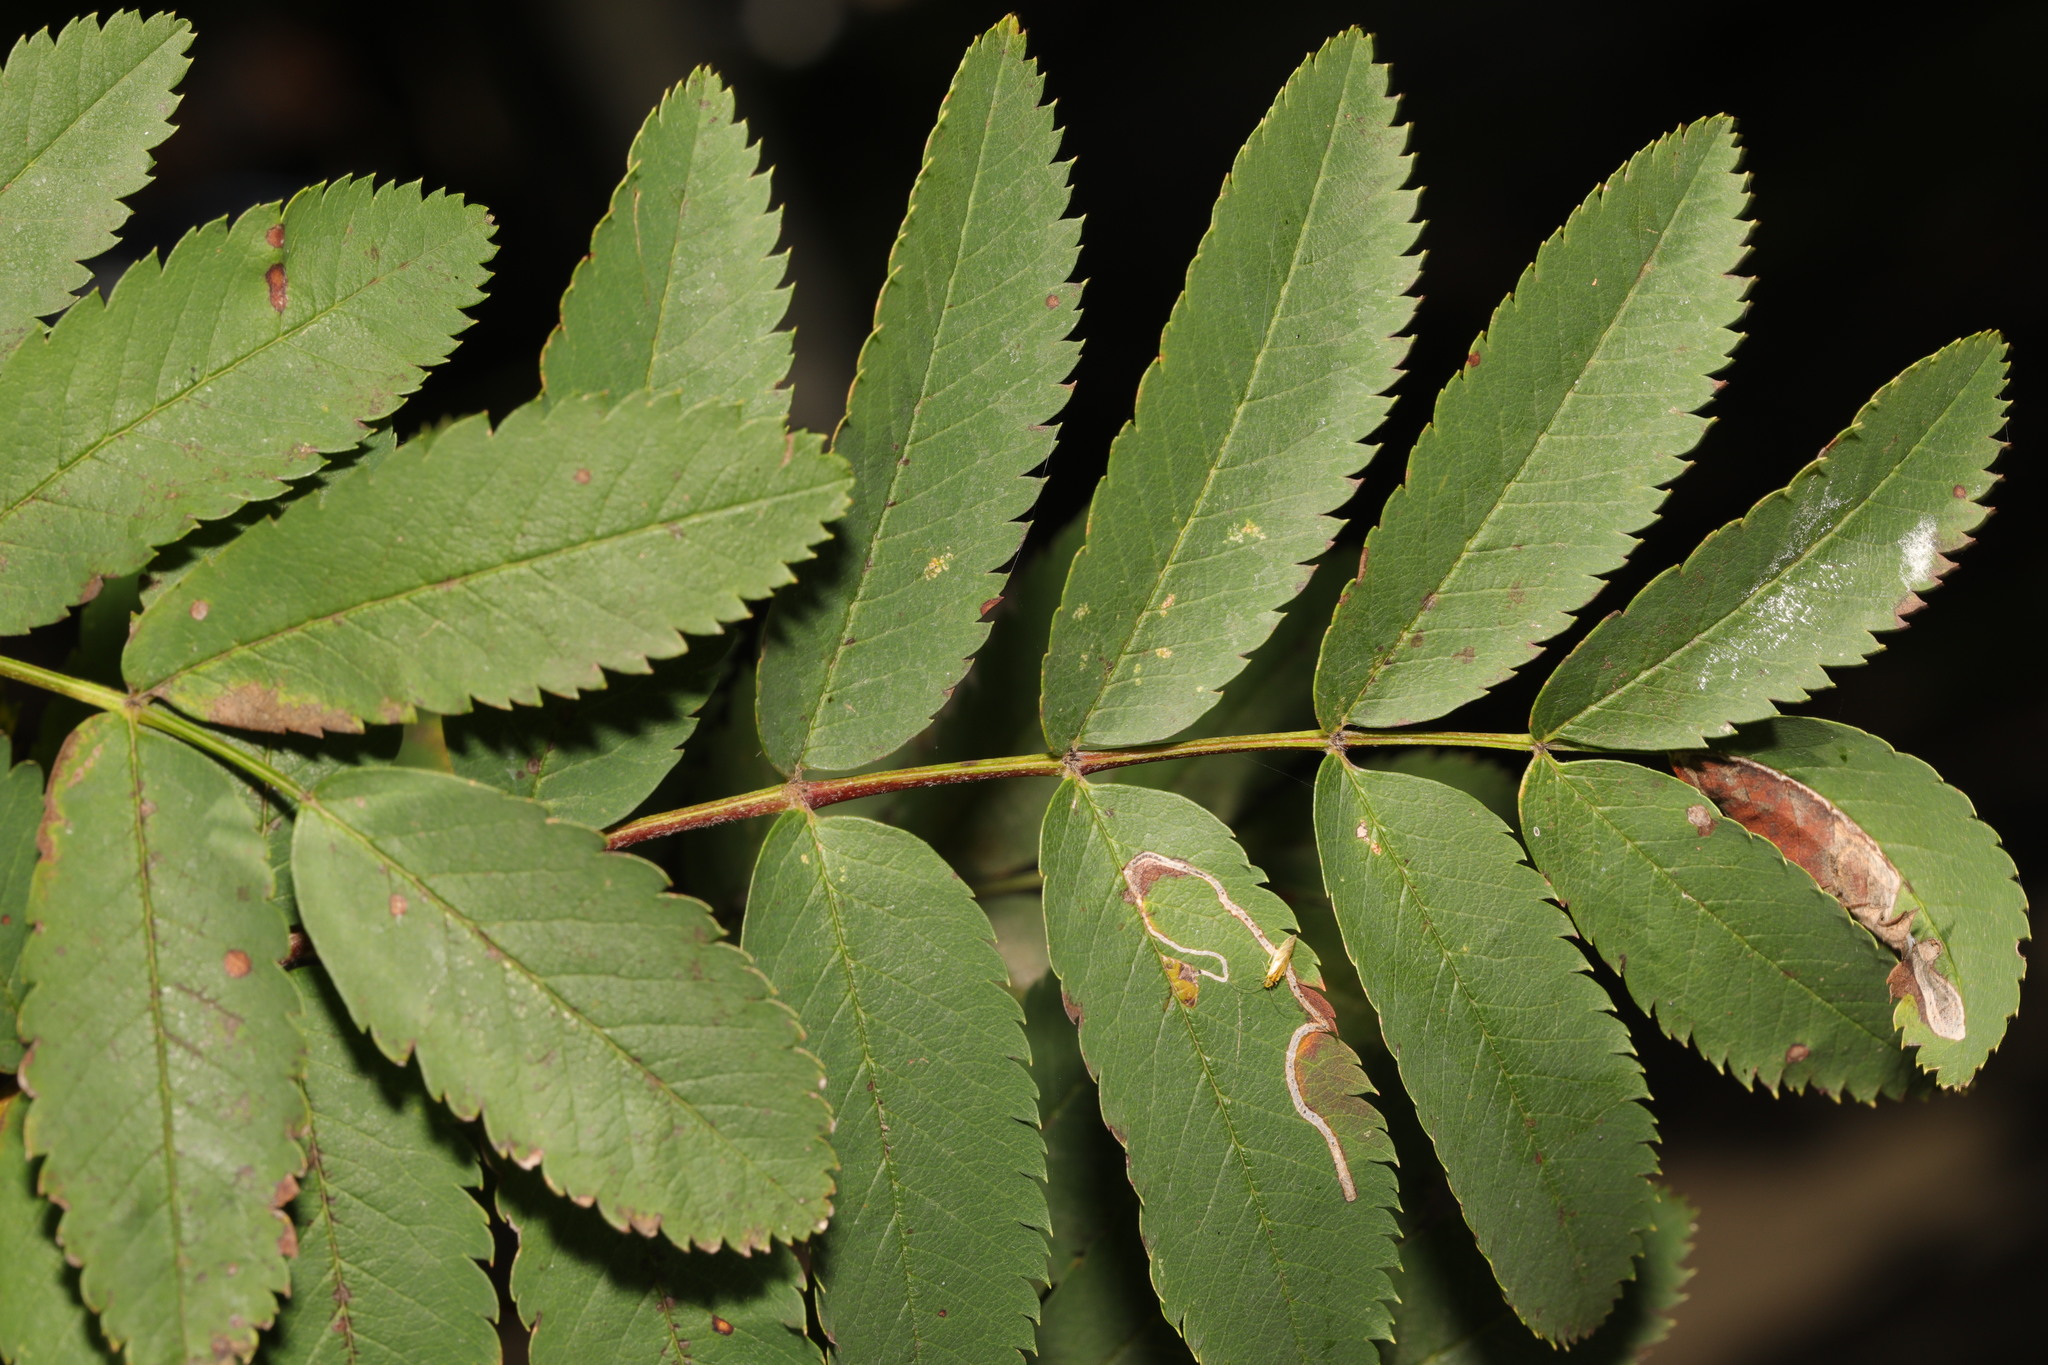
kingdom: Plantae
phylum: Tracheophyta
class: Magnoliopsida
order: Rosales
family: Rosaceae
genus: Sorbus
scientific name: Sorbus aucuparia
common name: Rowan
